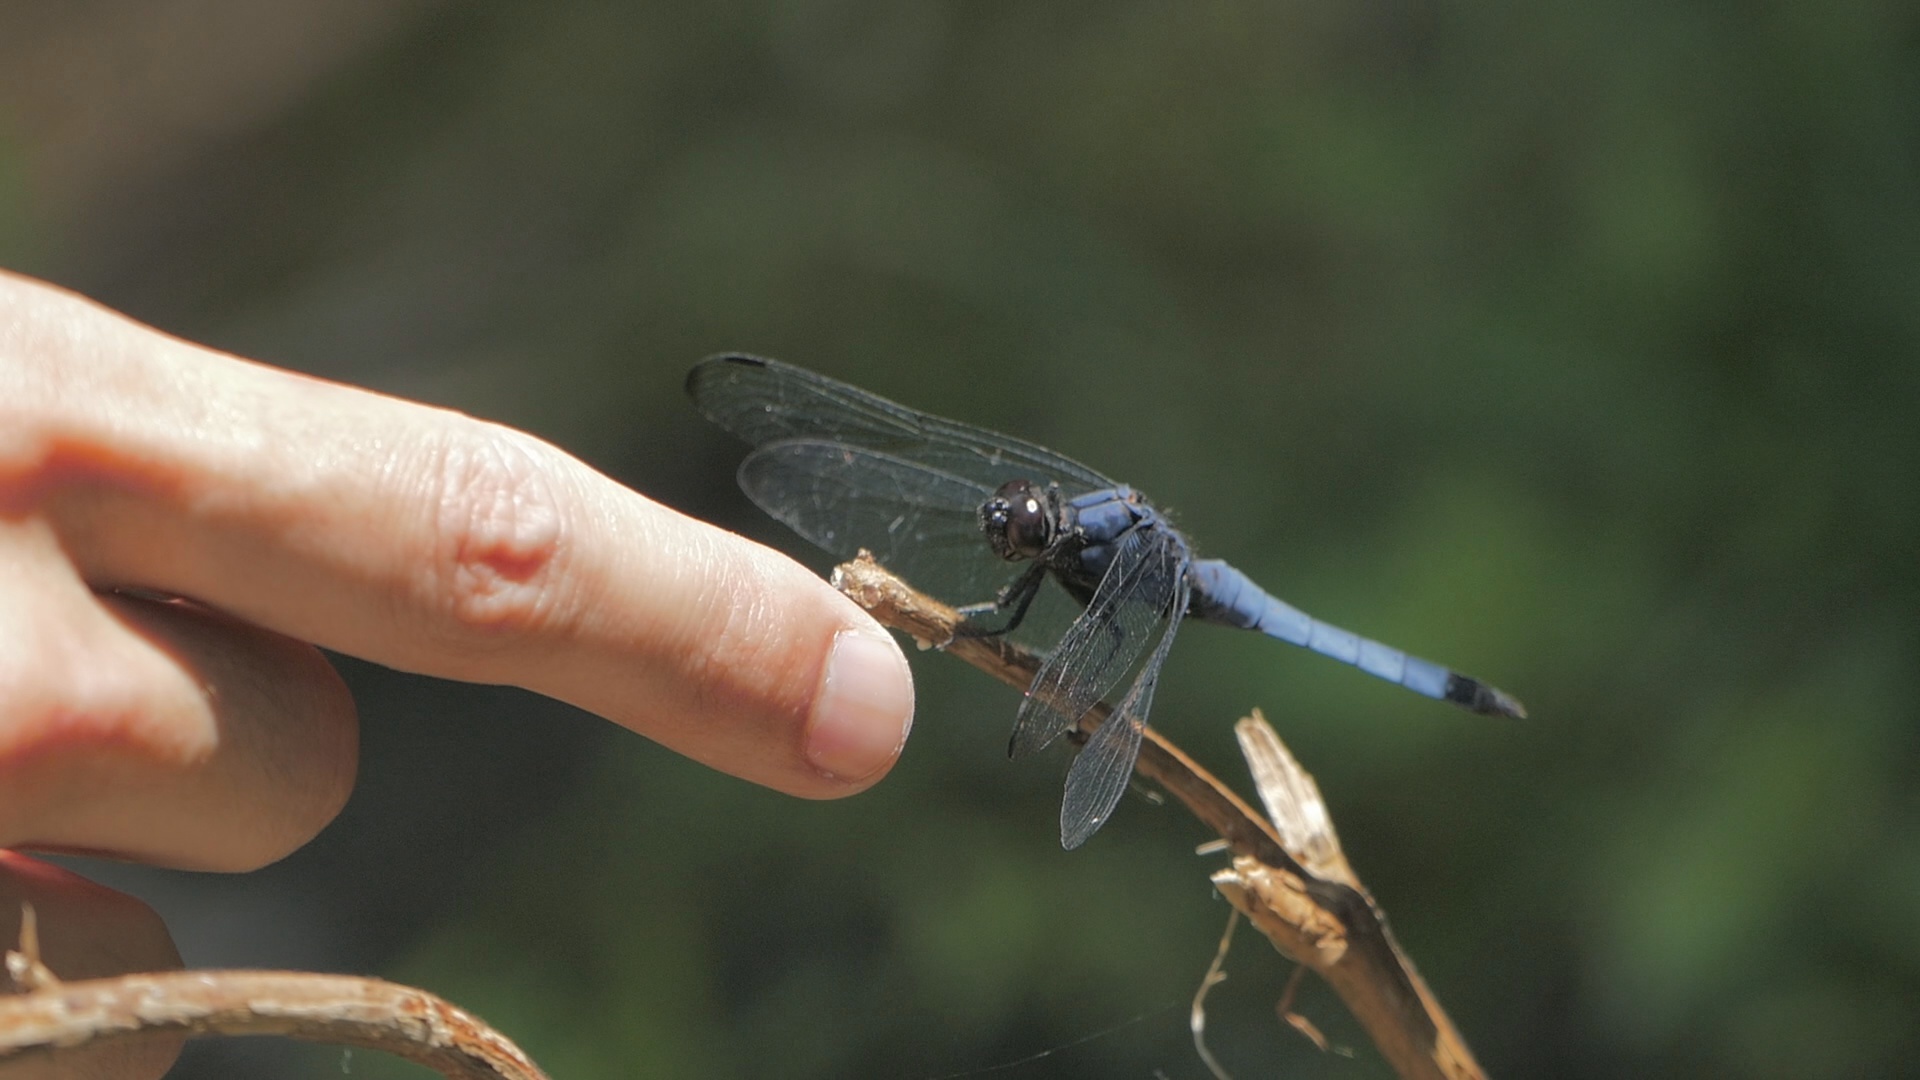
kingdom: Animalia
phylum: Arthropoda
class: Insecta
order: Odonata
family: Libellulidae
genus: Orthetrum
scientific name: Orthetrum melania
